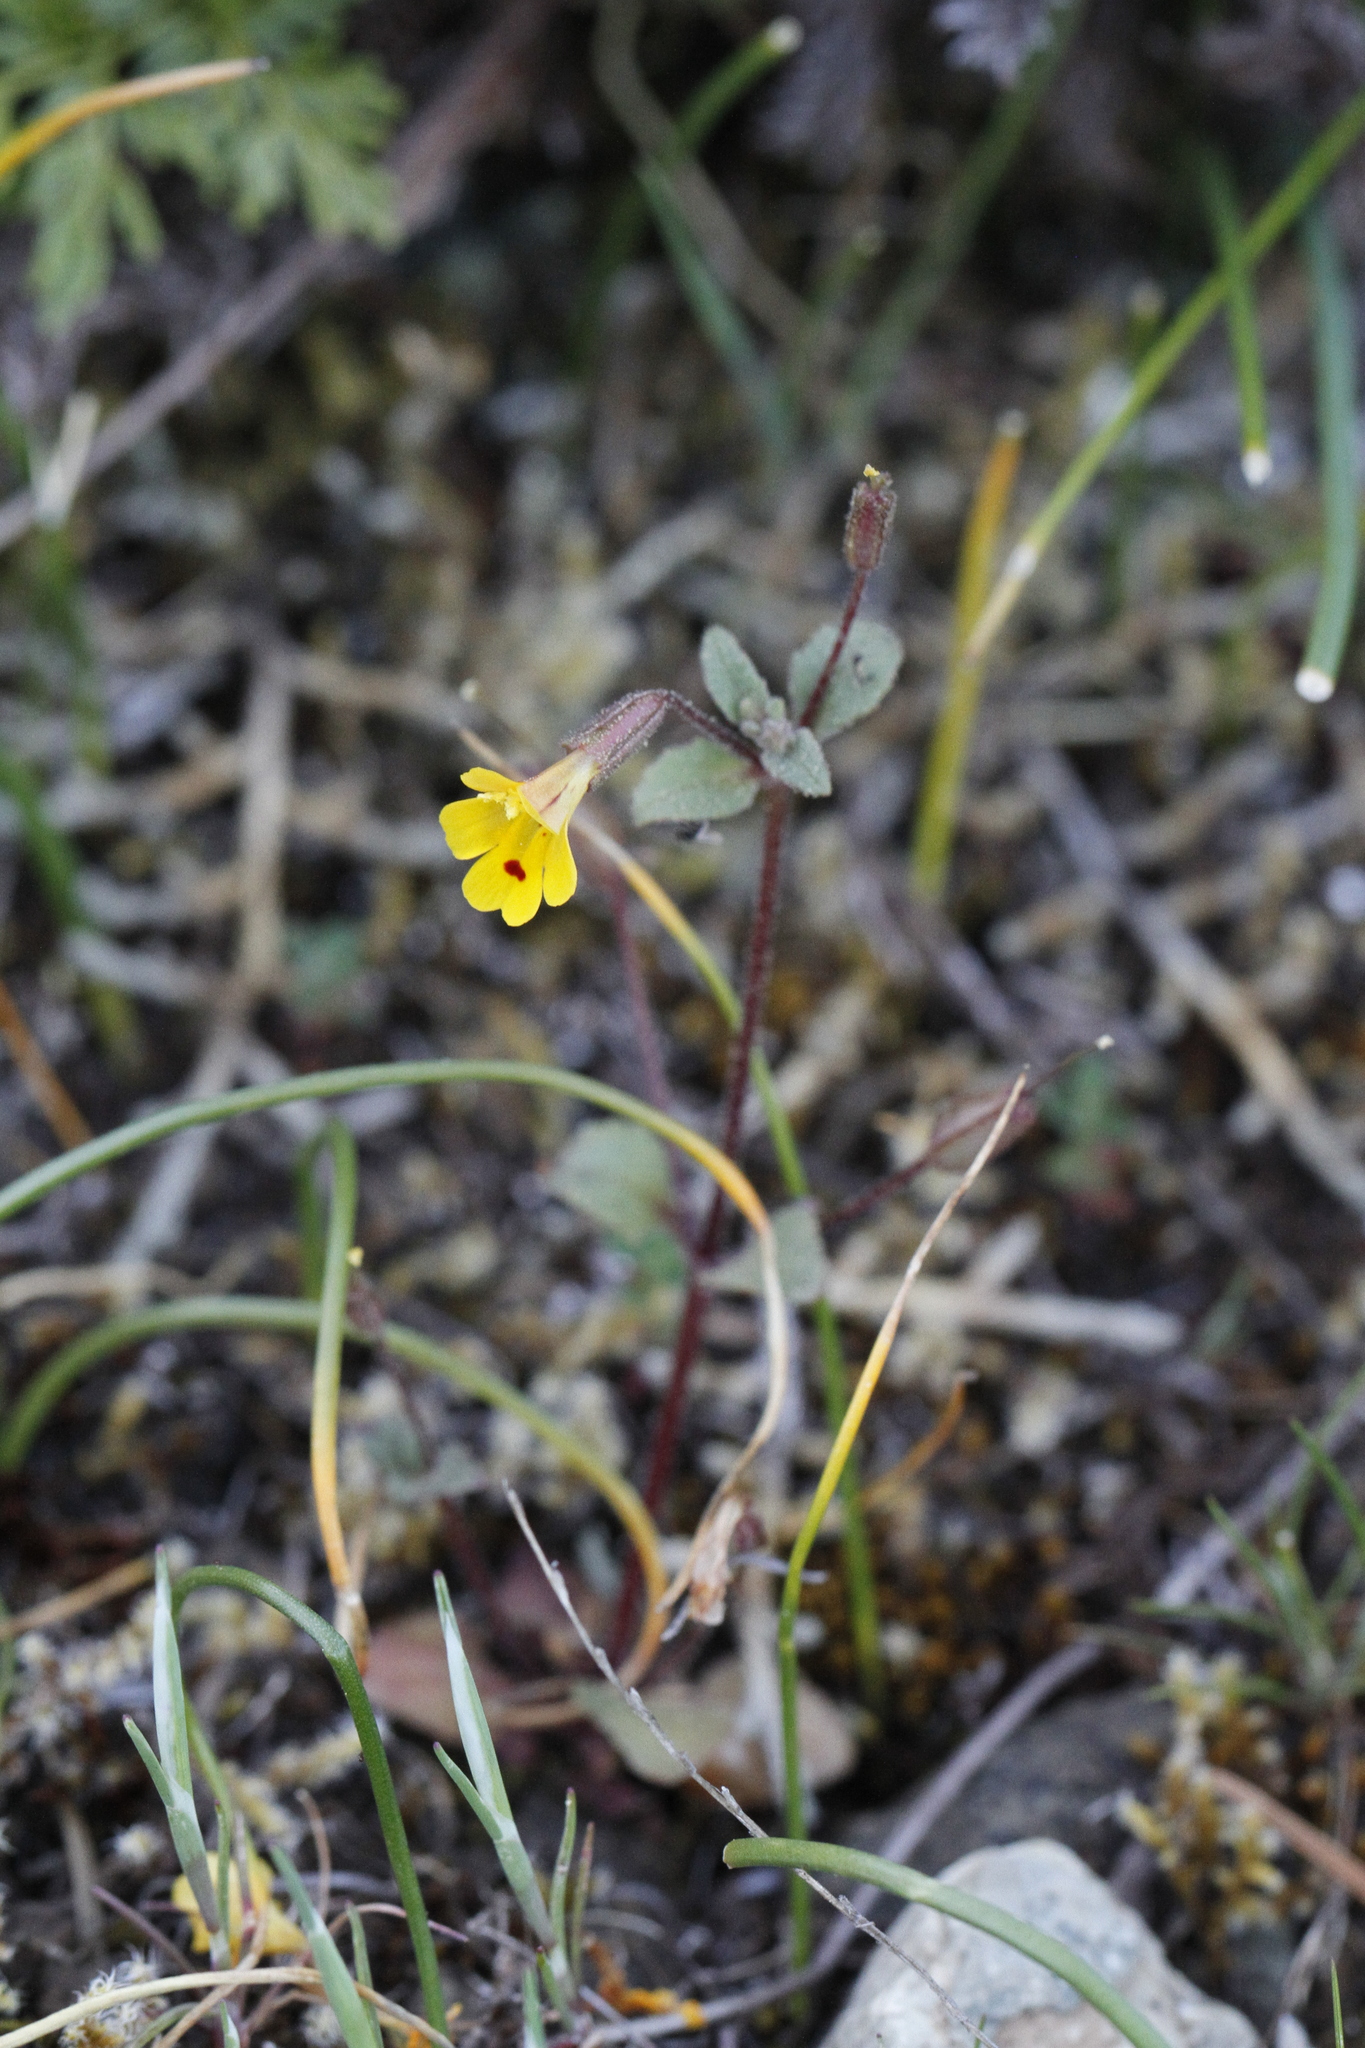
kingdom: Plantae
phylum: Tracheophyta
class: Magnoliopsida
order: Lamiales
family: Phrymaceae
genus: Erythranthe
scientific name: Erythranthe alsinoides
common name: Chickweed monkeyflower
